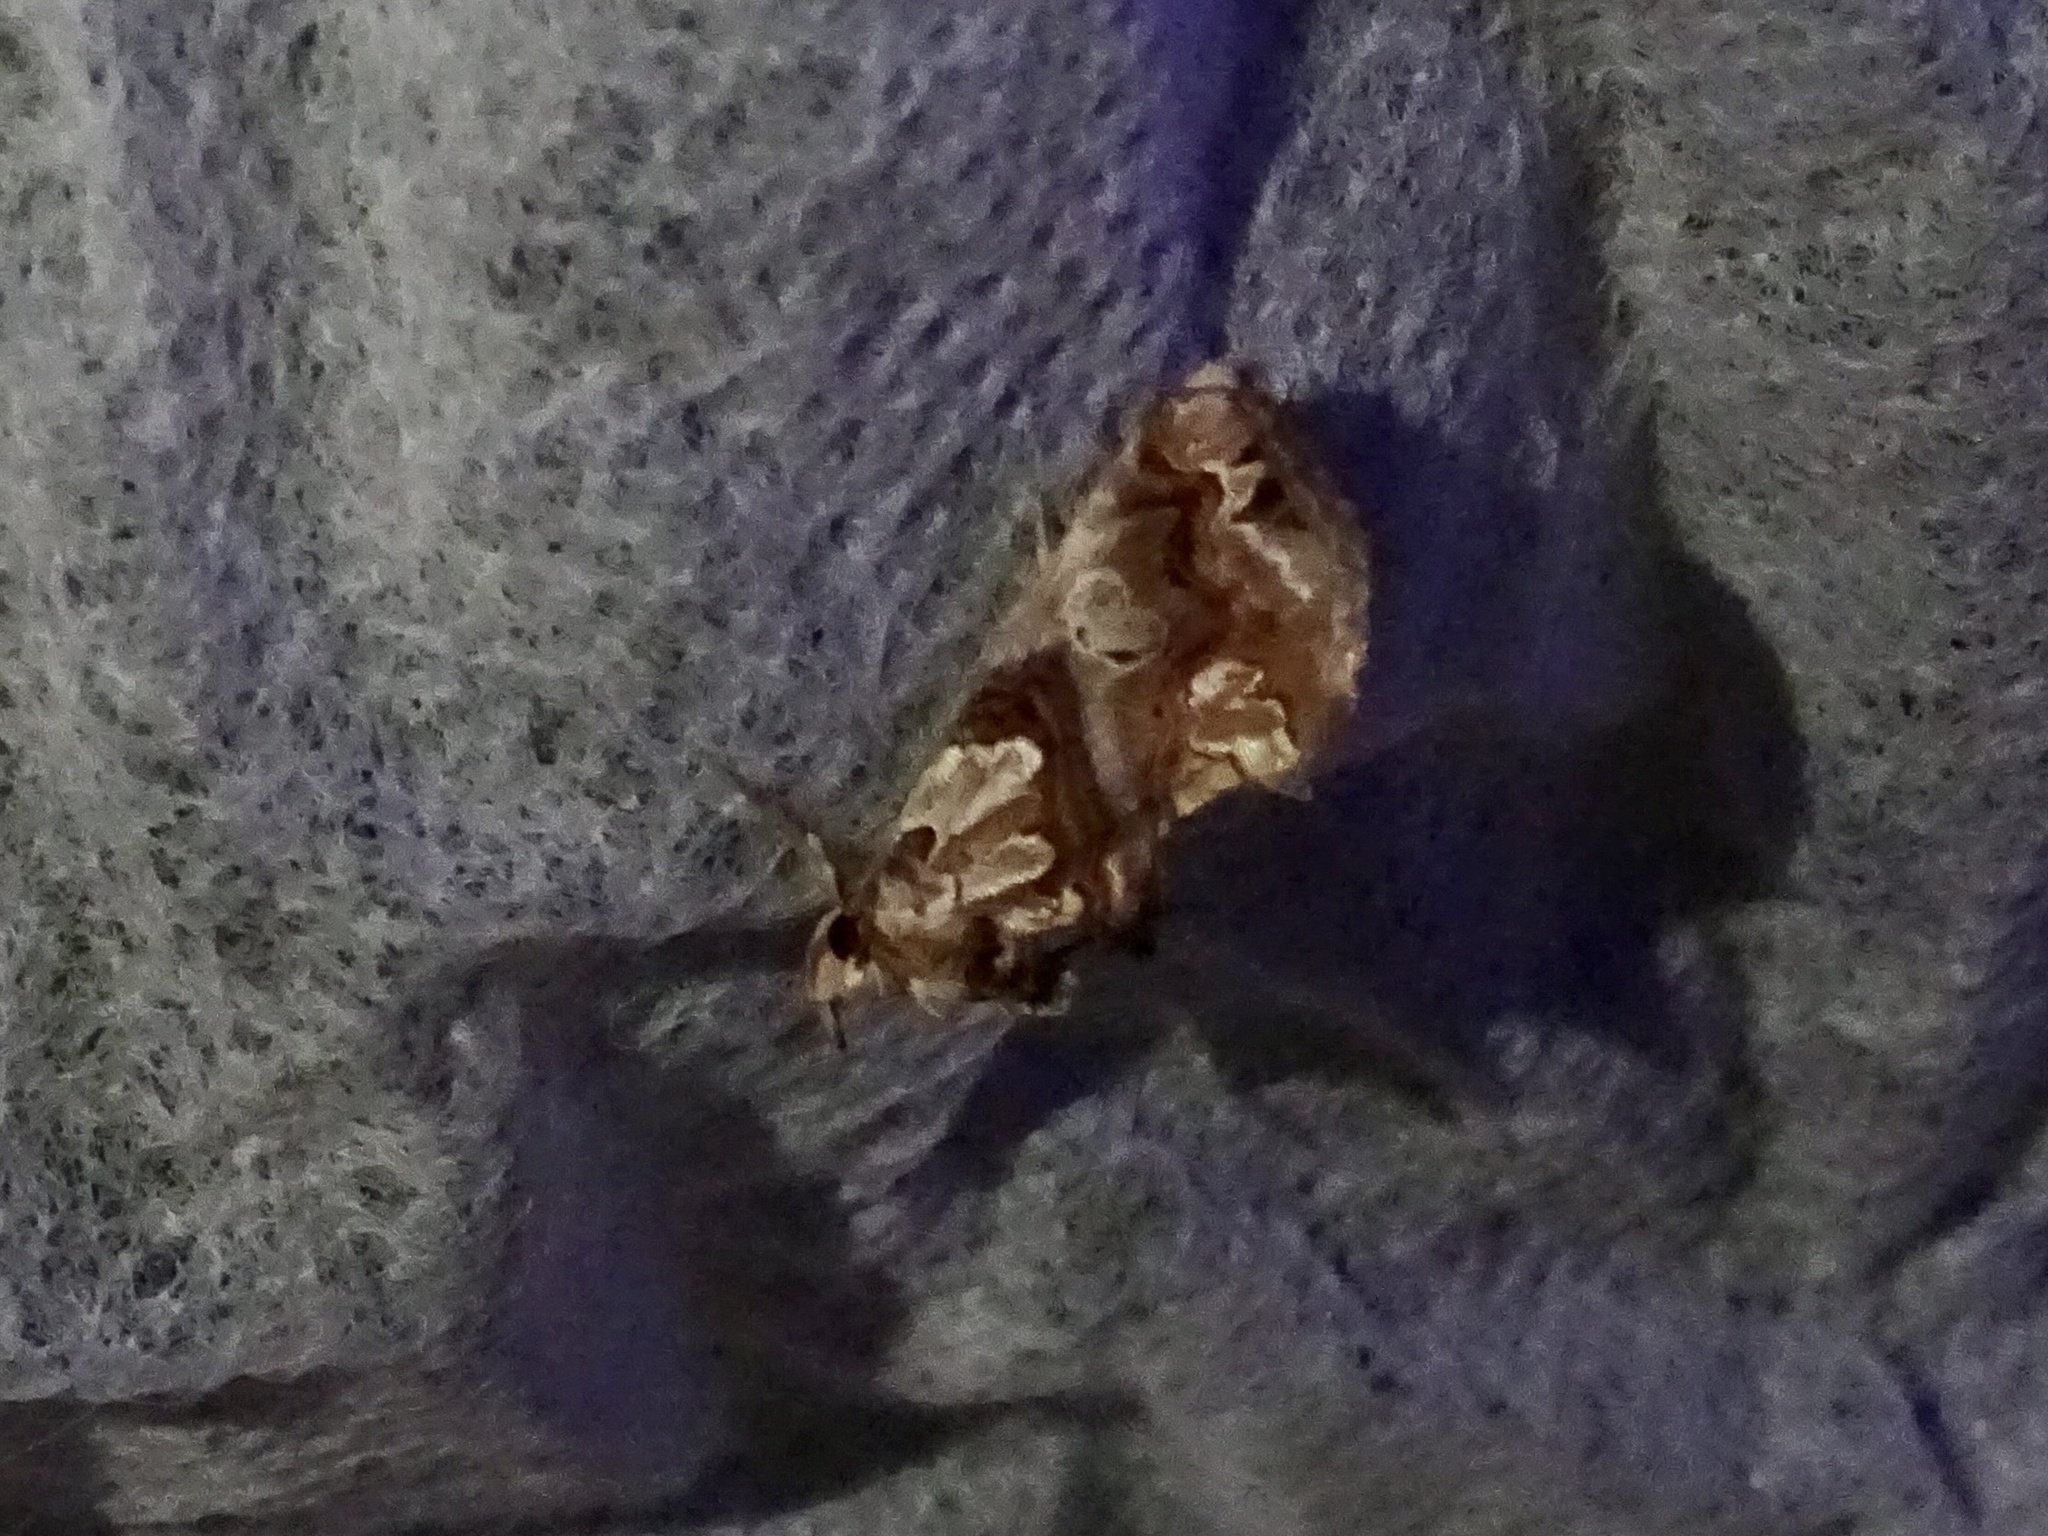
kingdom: Animalia
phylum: Arthropoda
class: Insecta
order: Lepidoptera
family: Erebidae
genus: Plusiodonta
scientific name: Plusiodonta compressipalpis
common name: Moonseed moth
